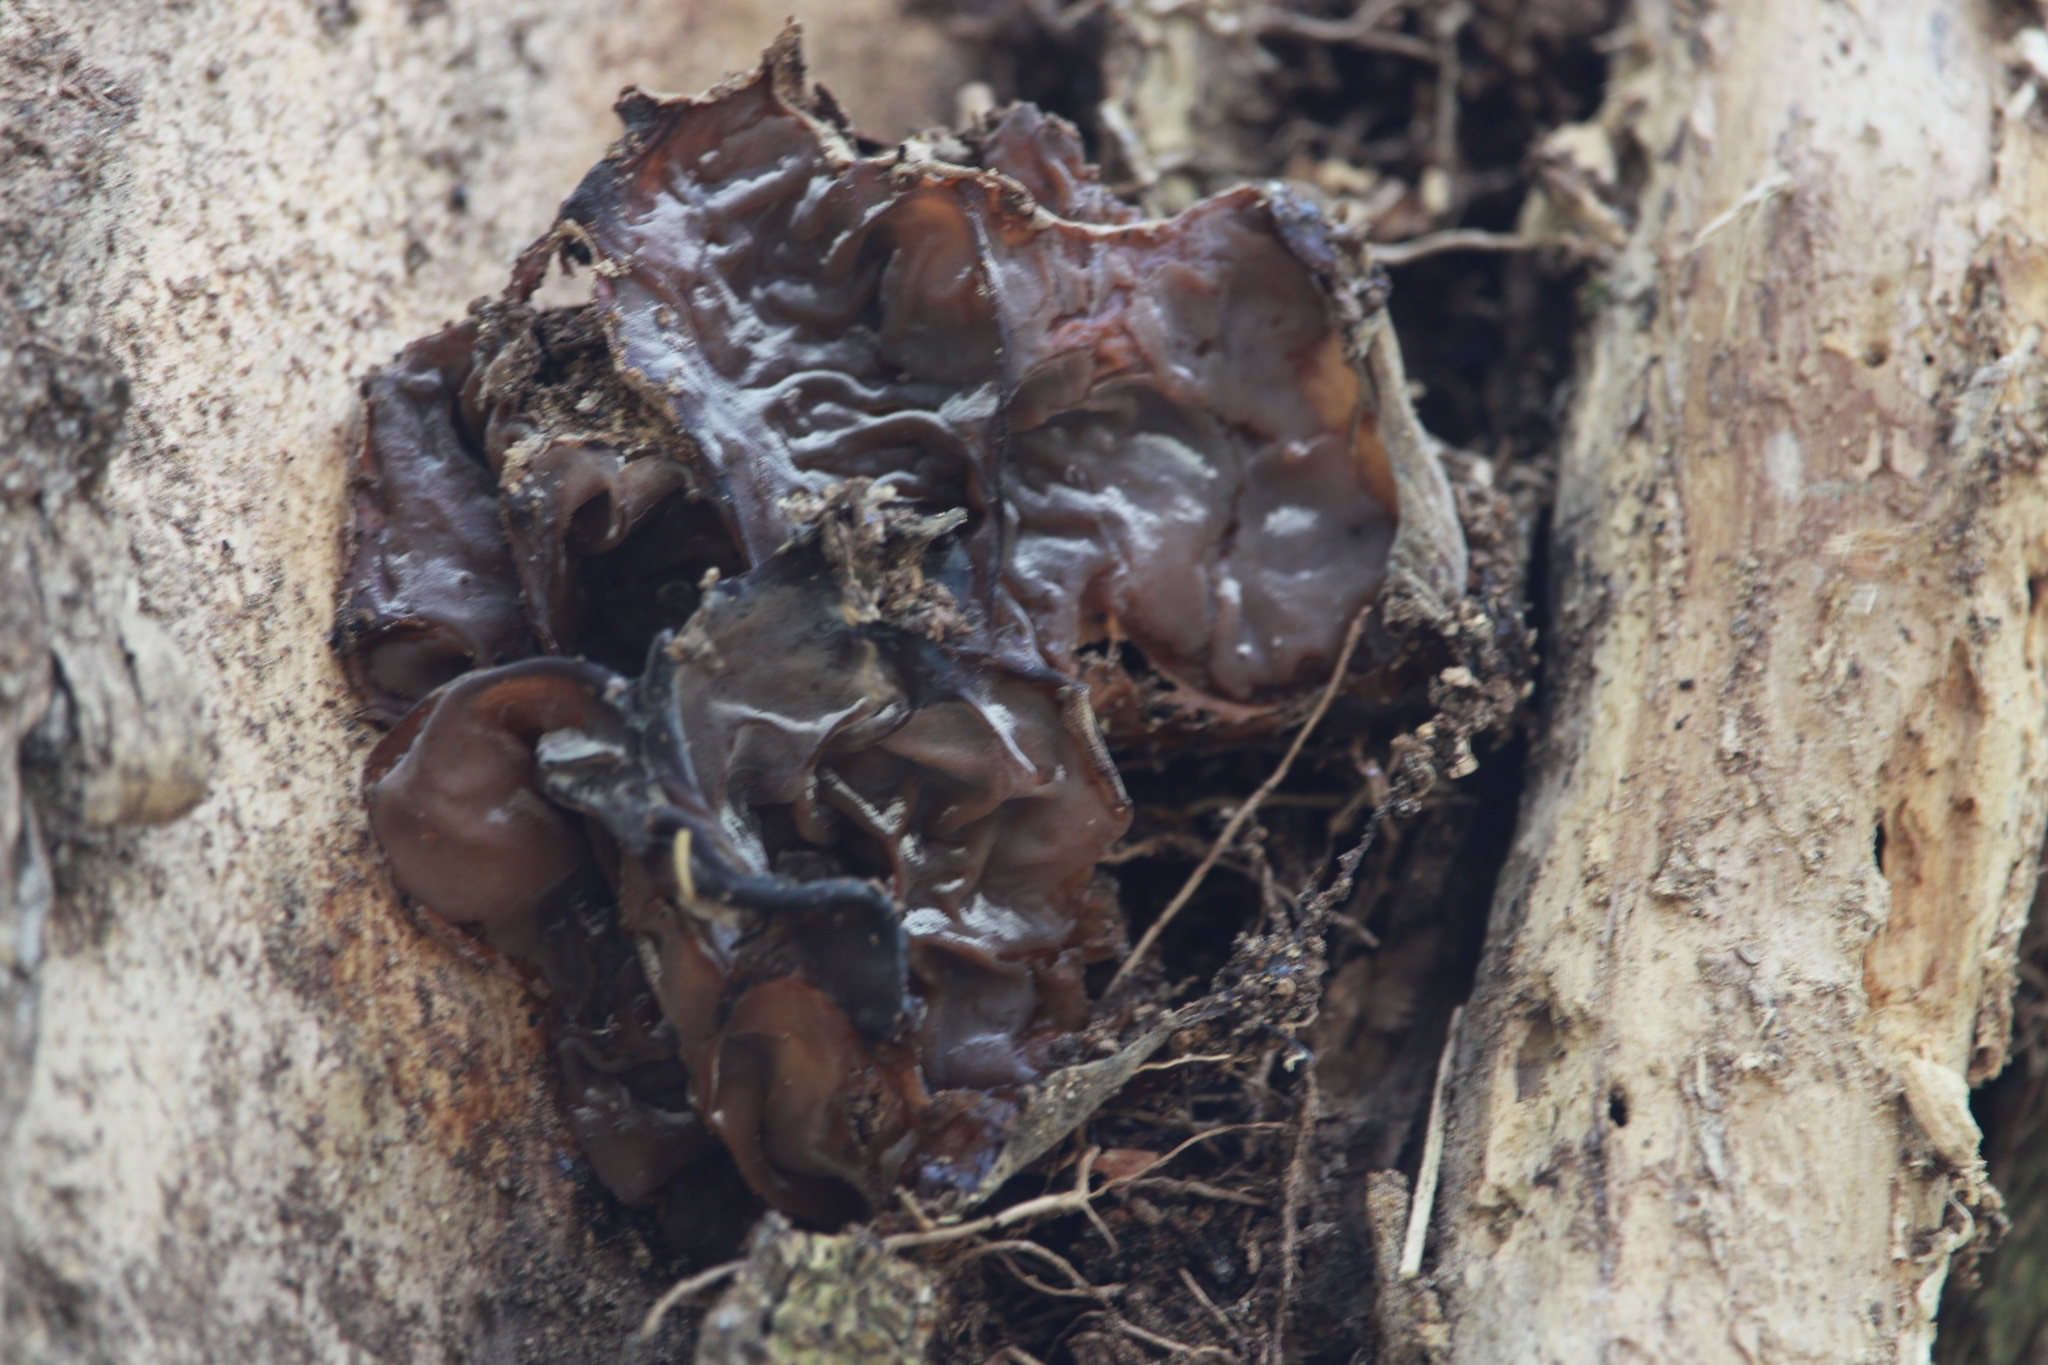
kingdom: Fungi
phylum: Basidiomycota
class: Agaricomycetes
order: Auriculariales
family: Auriculariaceae
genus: Auricularia
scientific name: Auricularia auricula-judae
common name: Jelly ear
